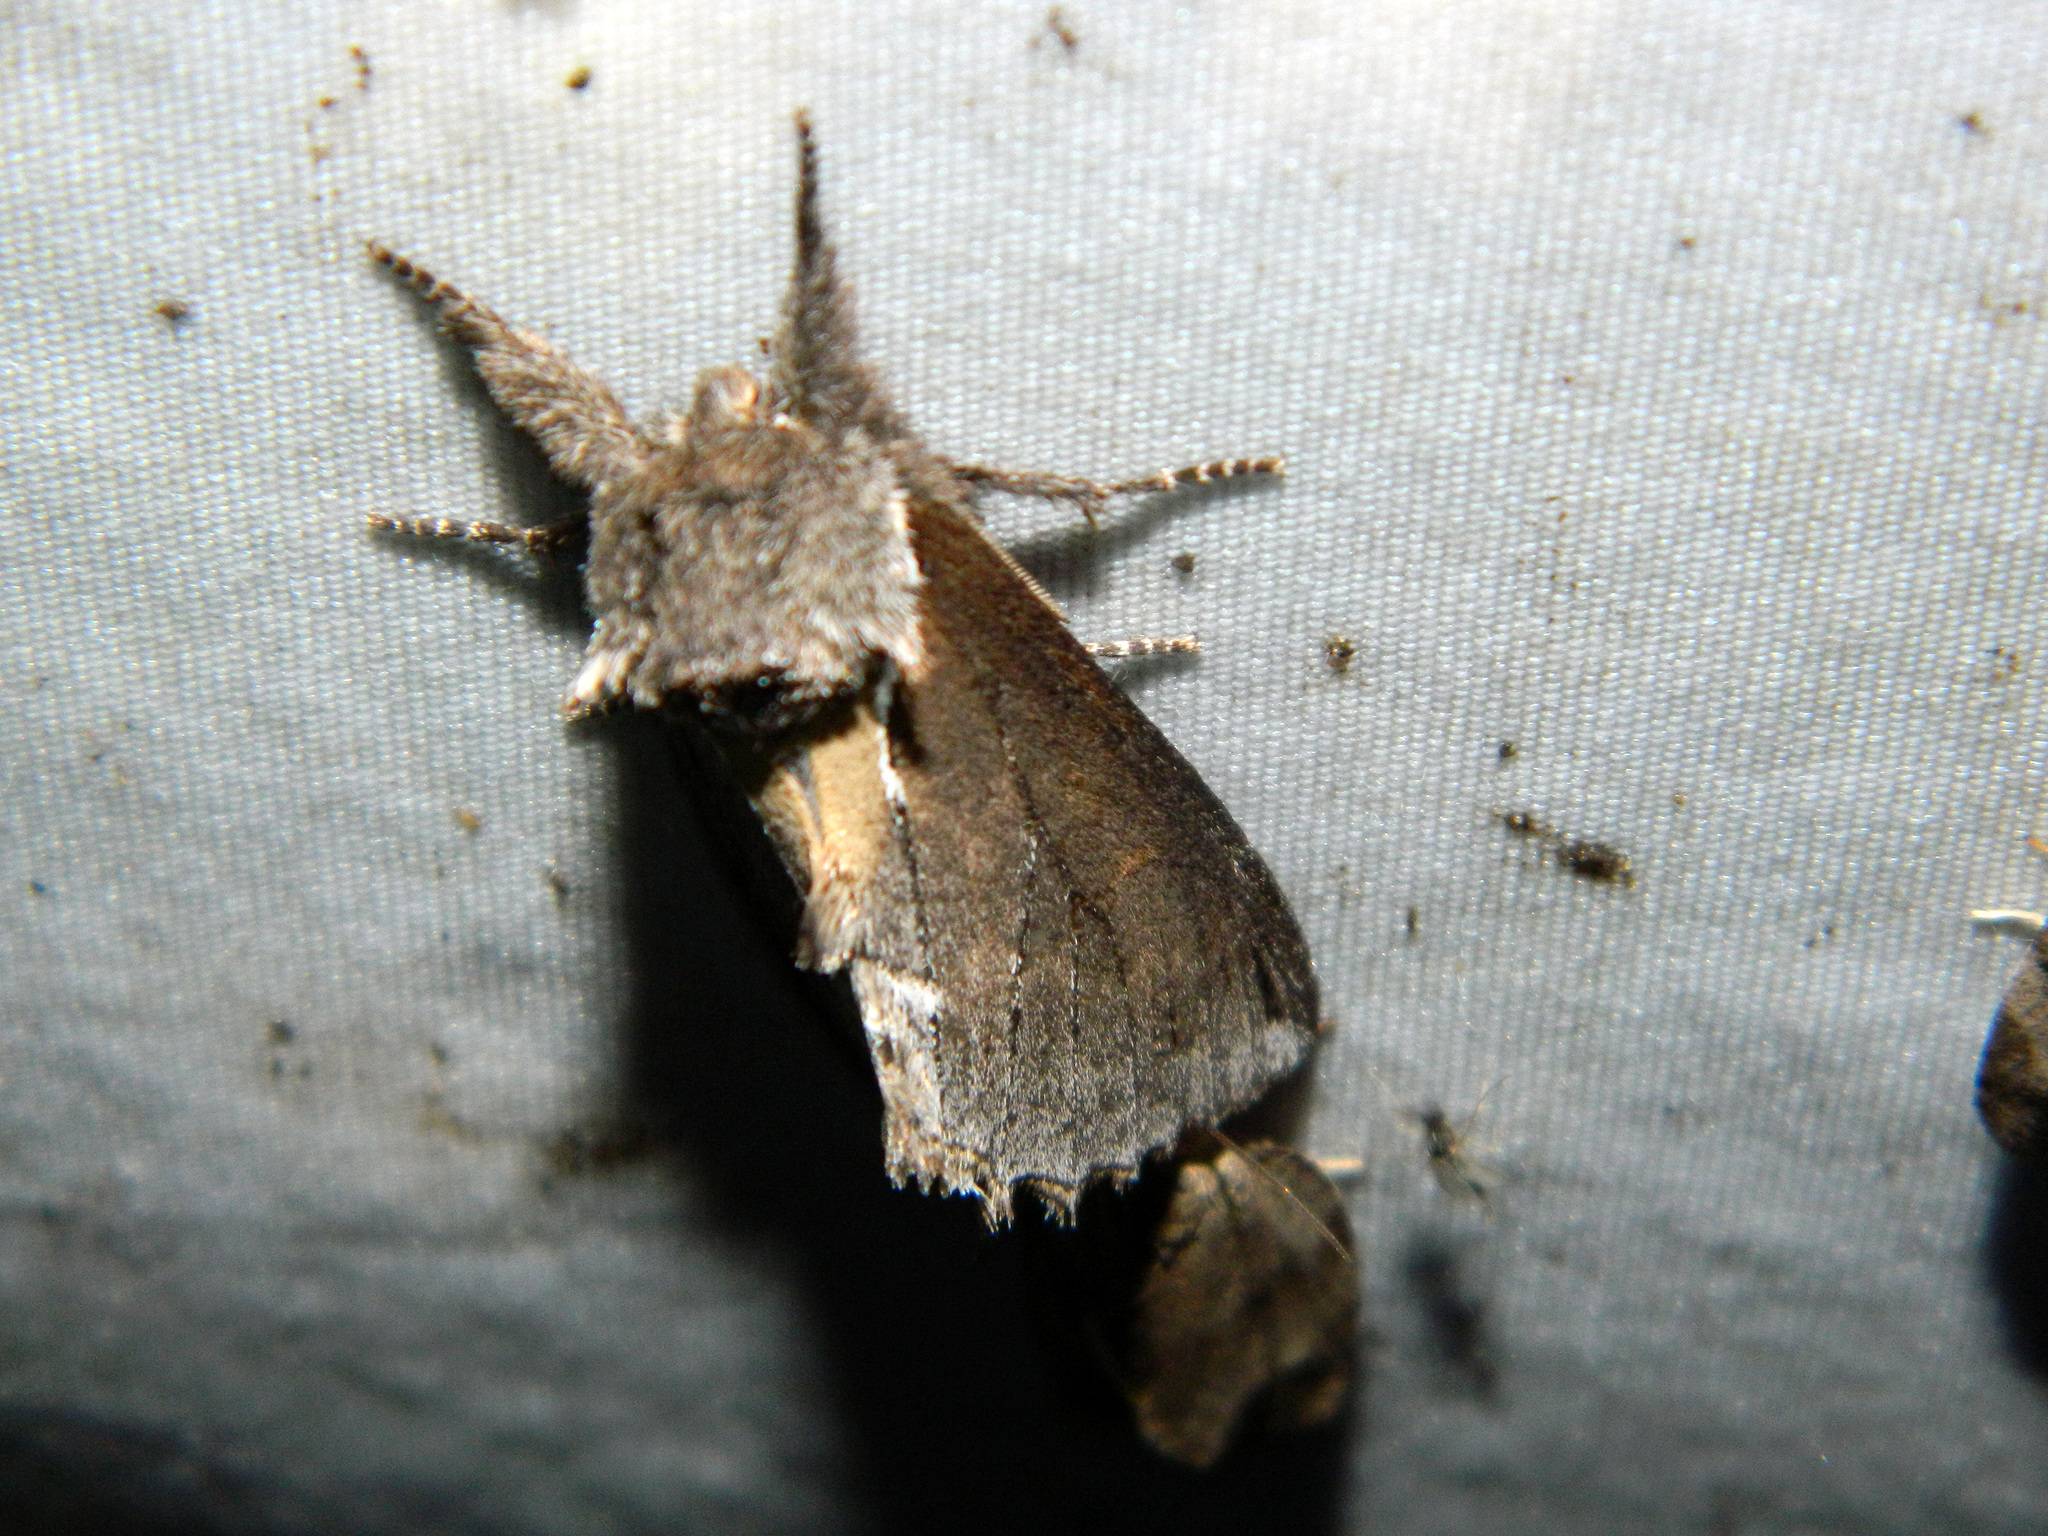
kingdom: Animalia
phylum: Arthropoda
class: Insecta
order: Lepidoptera
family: Notodontidae
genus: Pheosidea
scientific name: Pheosidea elegans
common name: Elegant prominent
